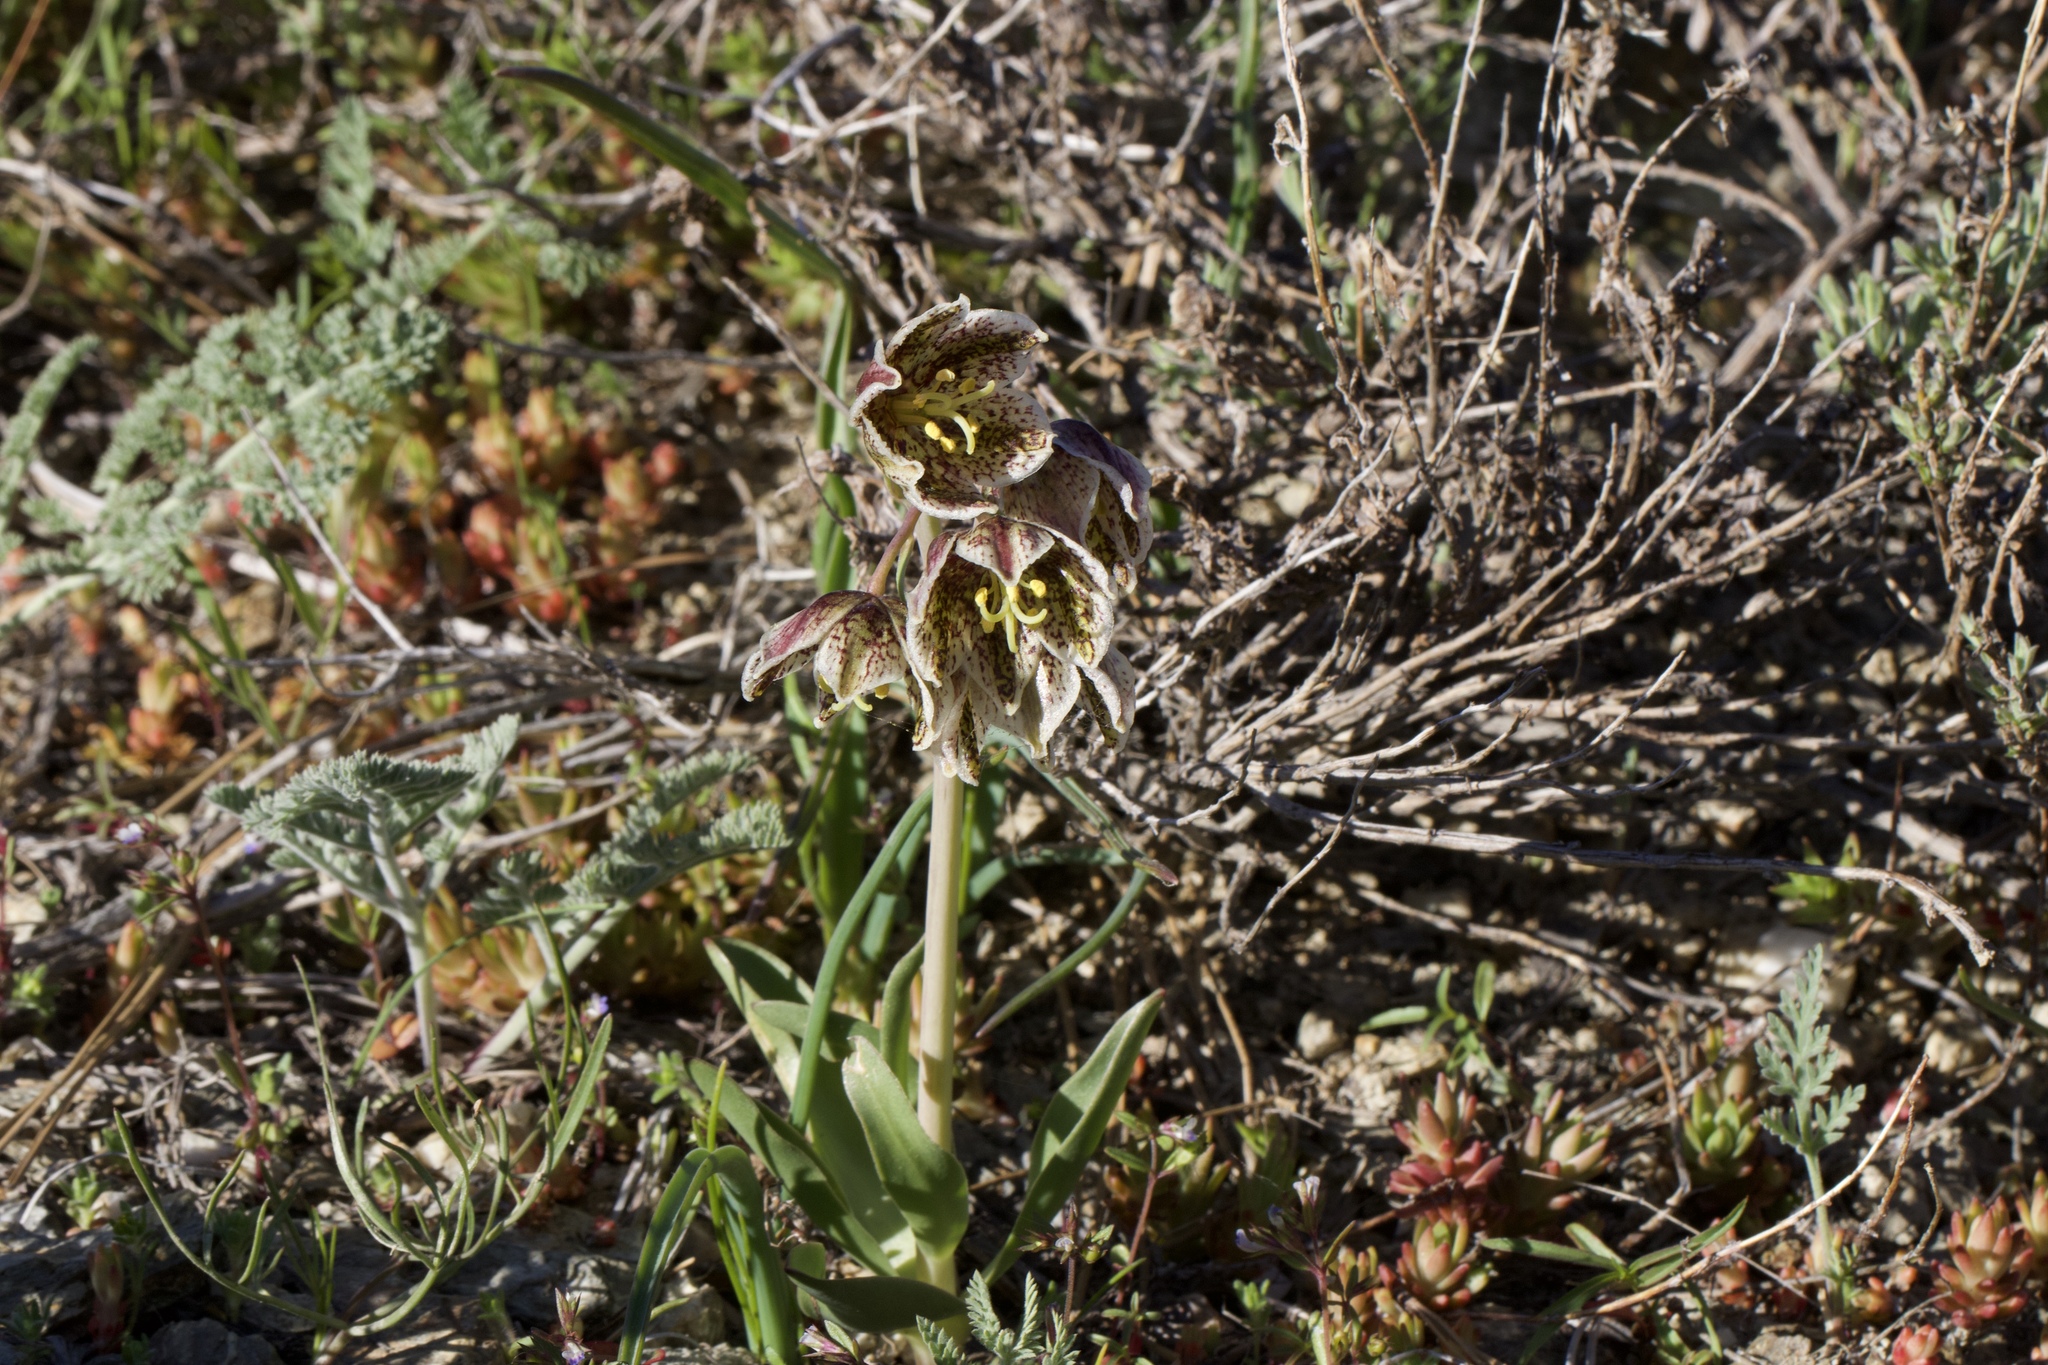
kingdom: Plantae
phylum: Tracheophyta
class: Liliopsida
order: Liliales
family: Liliaceae
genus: Fritillaria
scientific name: Fritillaria purdyi
